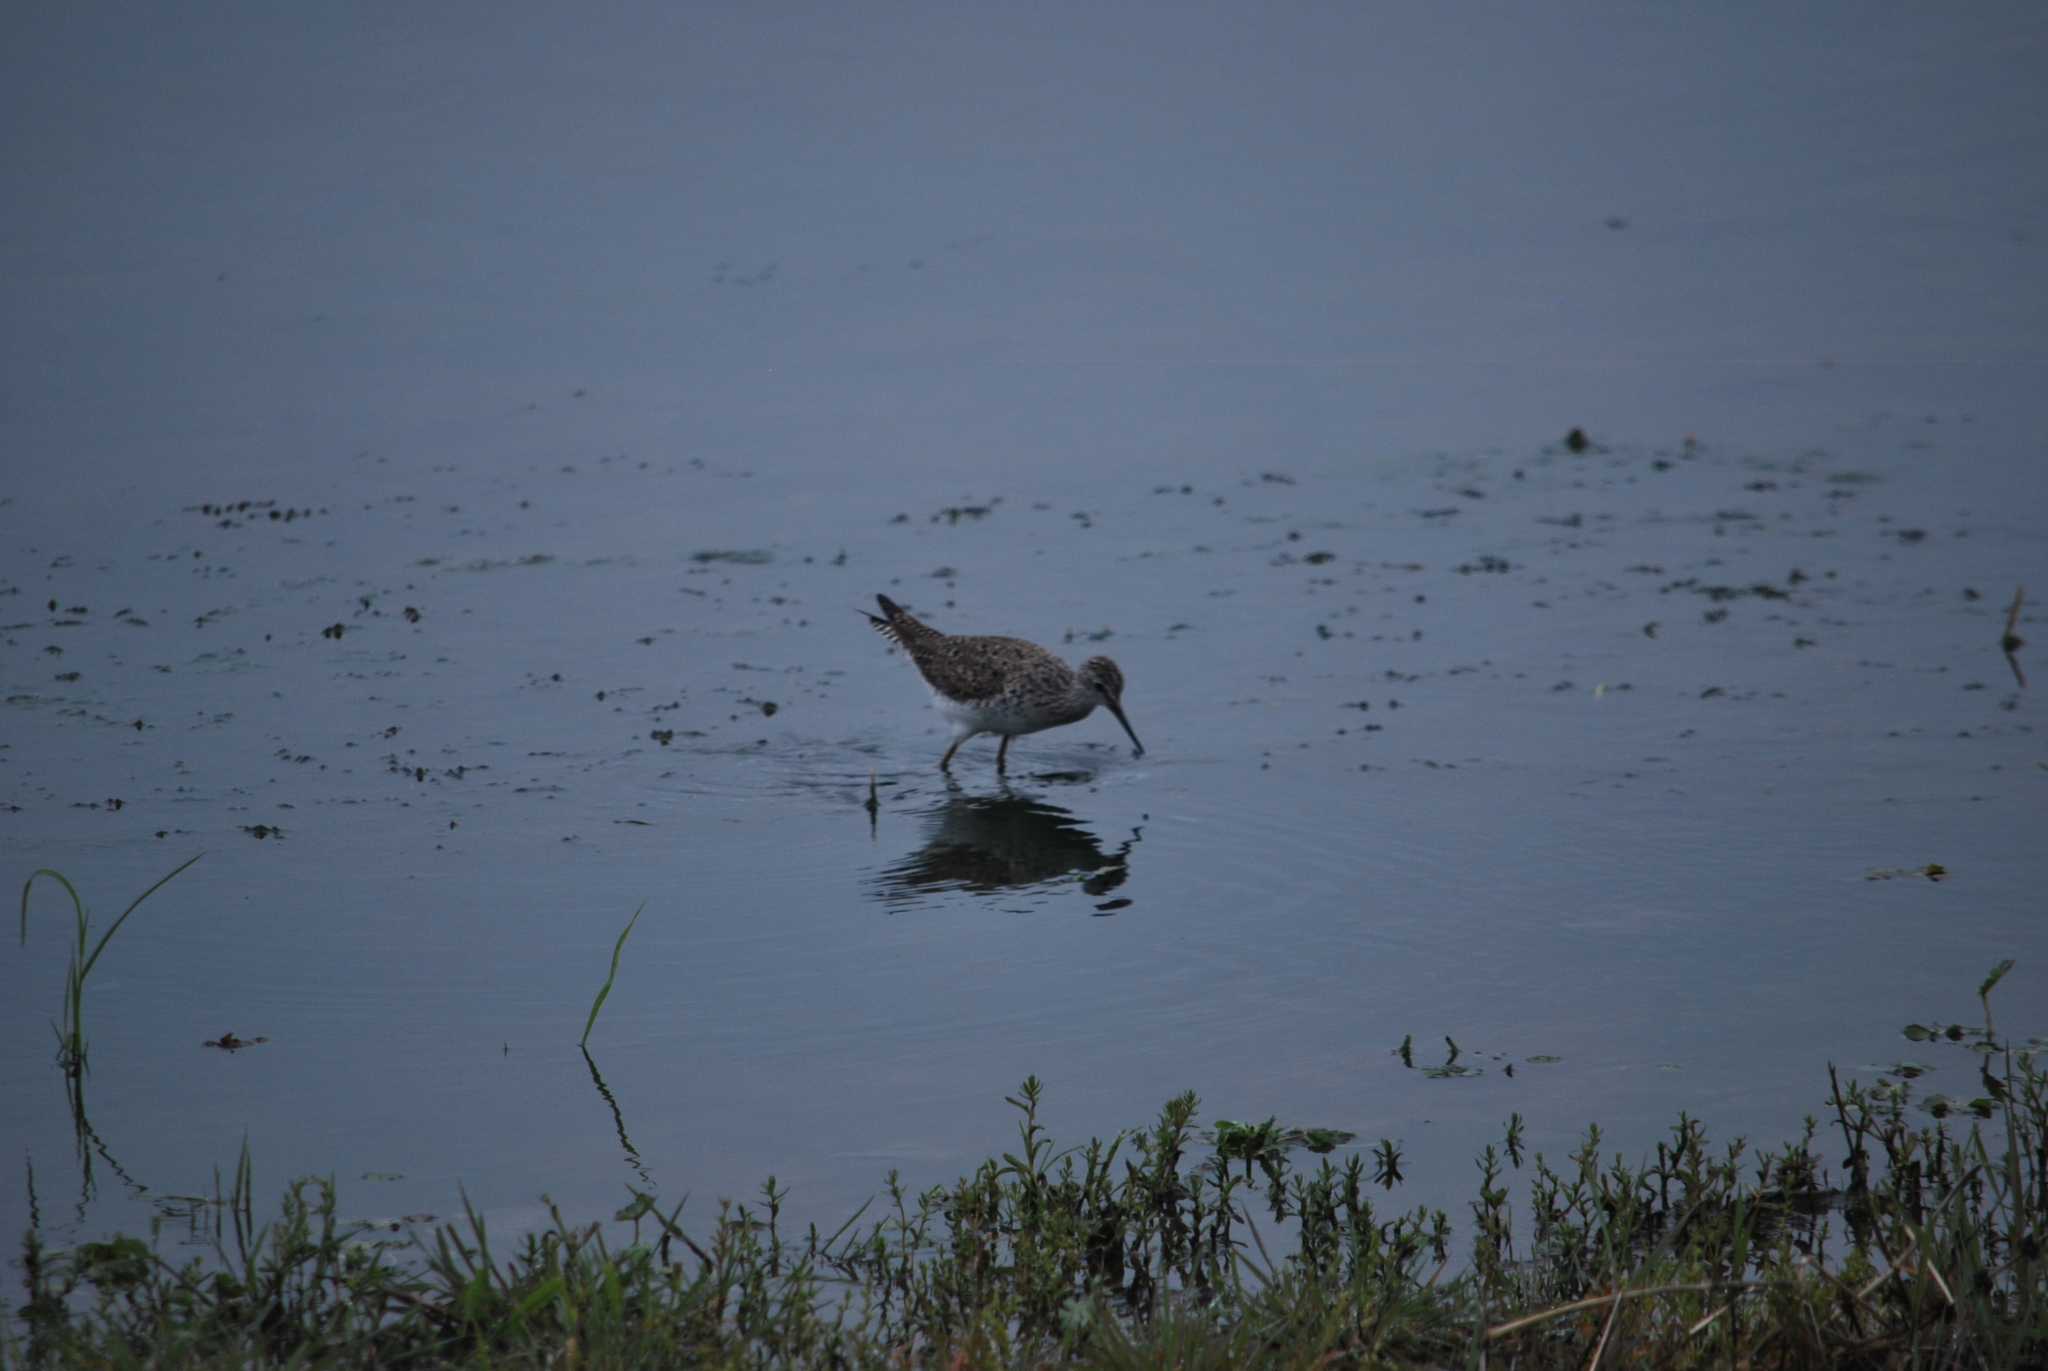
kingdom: Animalia
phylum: Chordata
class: Aves
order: Charadriiformes
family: Scolopacidae
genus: Tringa
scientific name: Tringa melanoleuca
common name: Greater yellowlegs
